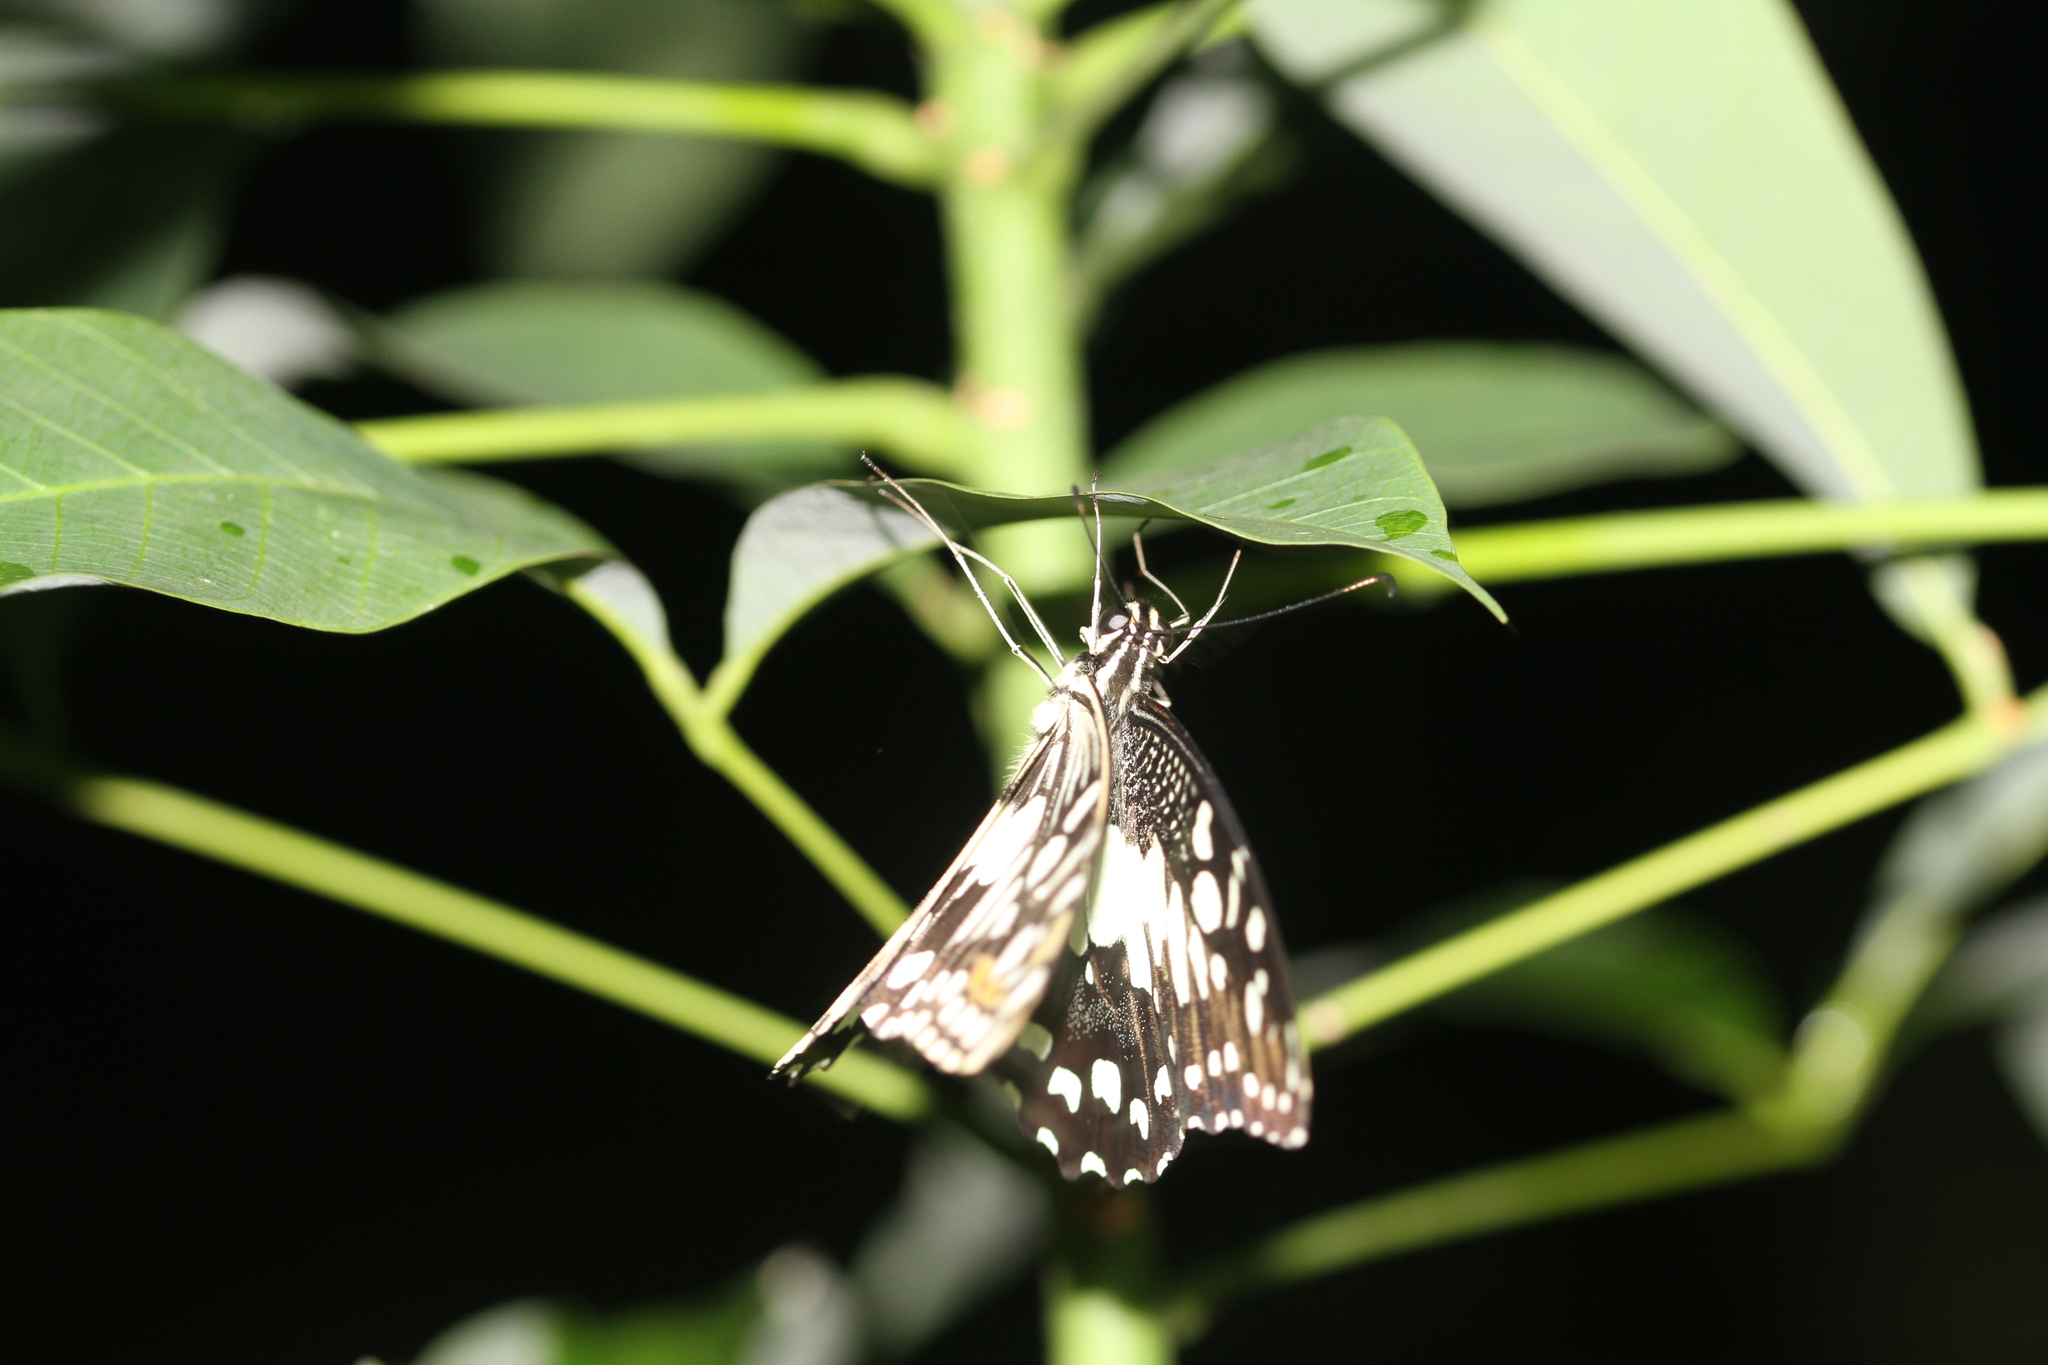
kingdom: Animalia
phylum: Arthropoda
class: Insecta
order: Lepidoptera
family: Papilionidae
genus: Papilio
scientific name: Papilio demoleus
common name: Lime butterfly
